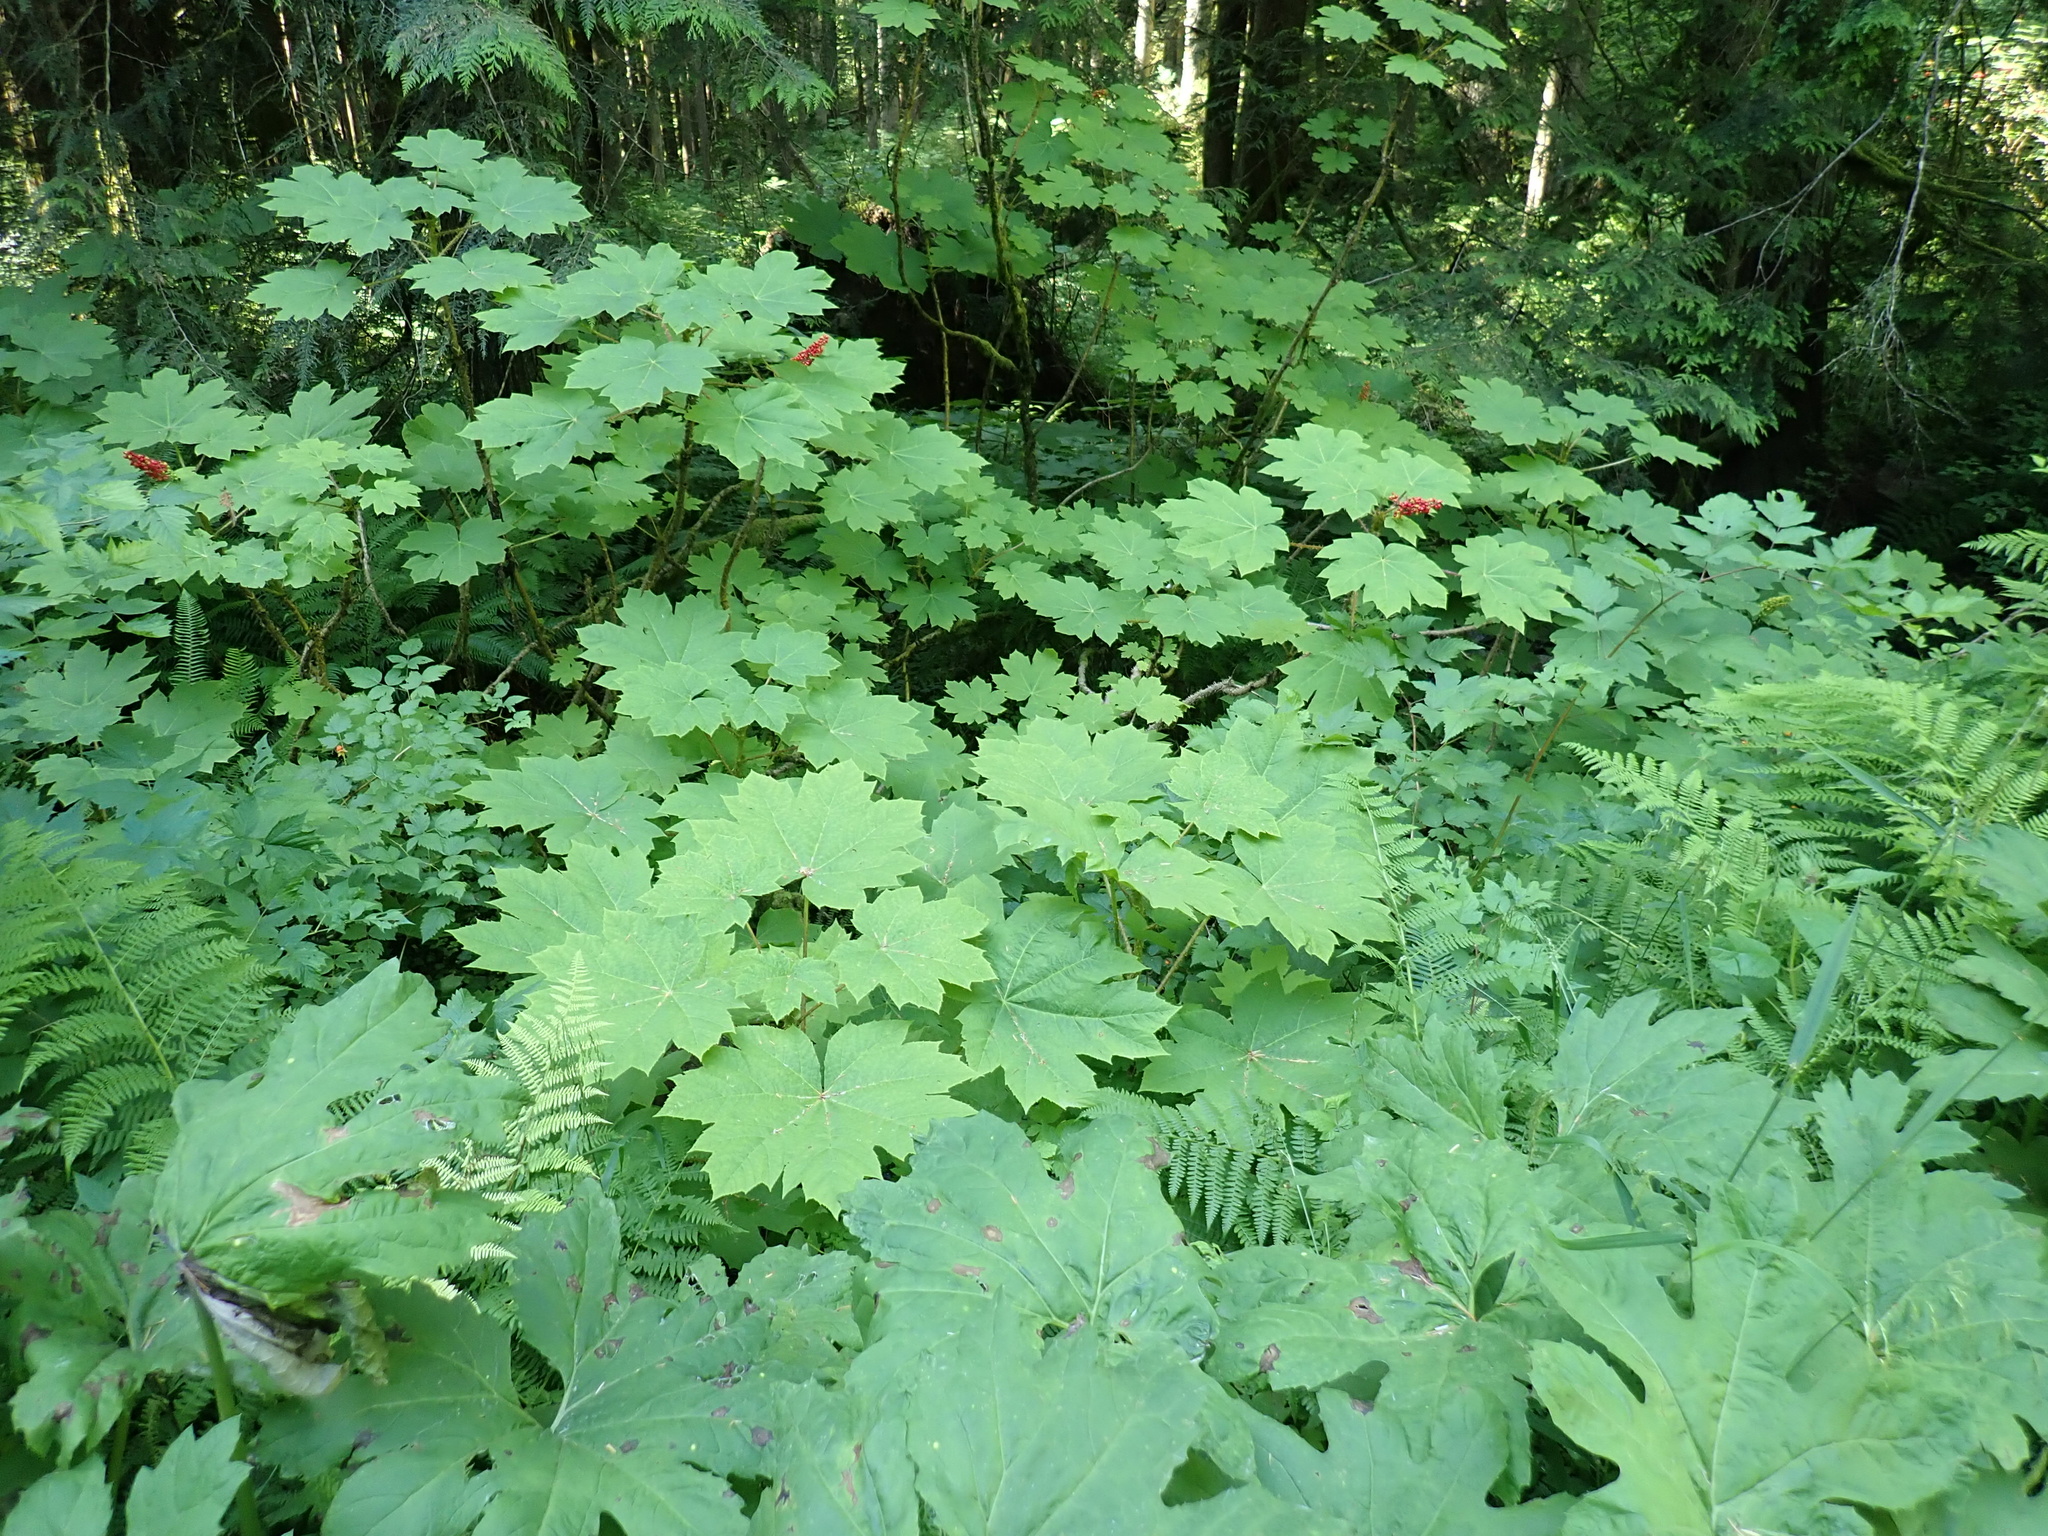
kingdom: Plantae
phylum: Tracheophyta
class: Magnoliopsida
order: Apiales
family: Araliaceae
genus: Oplopanax
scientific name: Oplopanax horridus
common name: Devil's walking-stick
